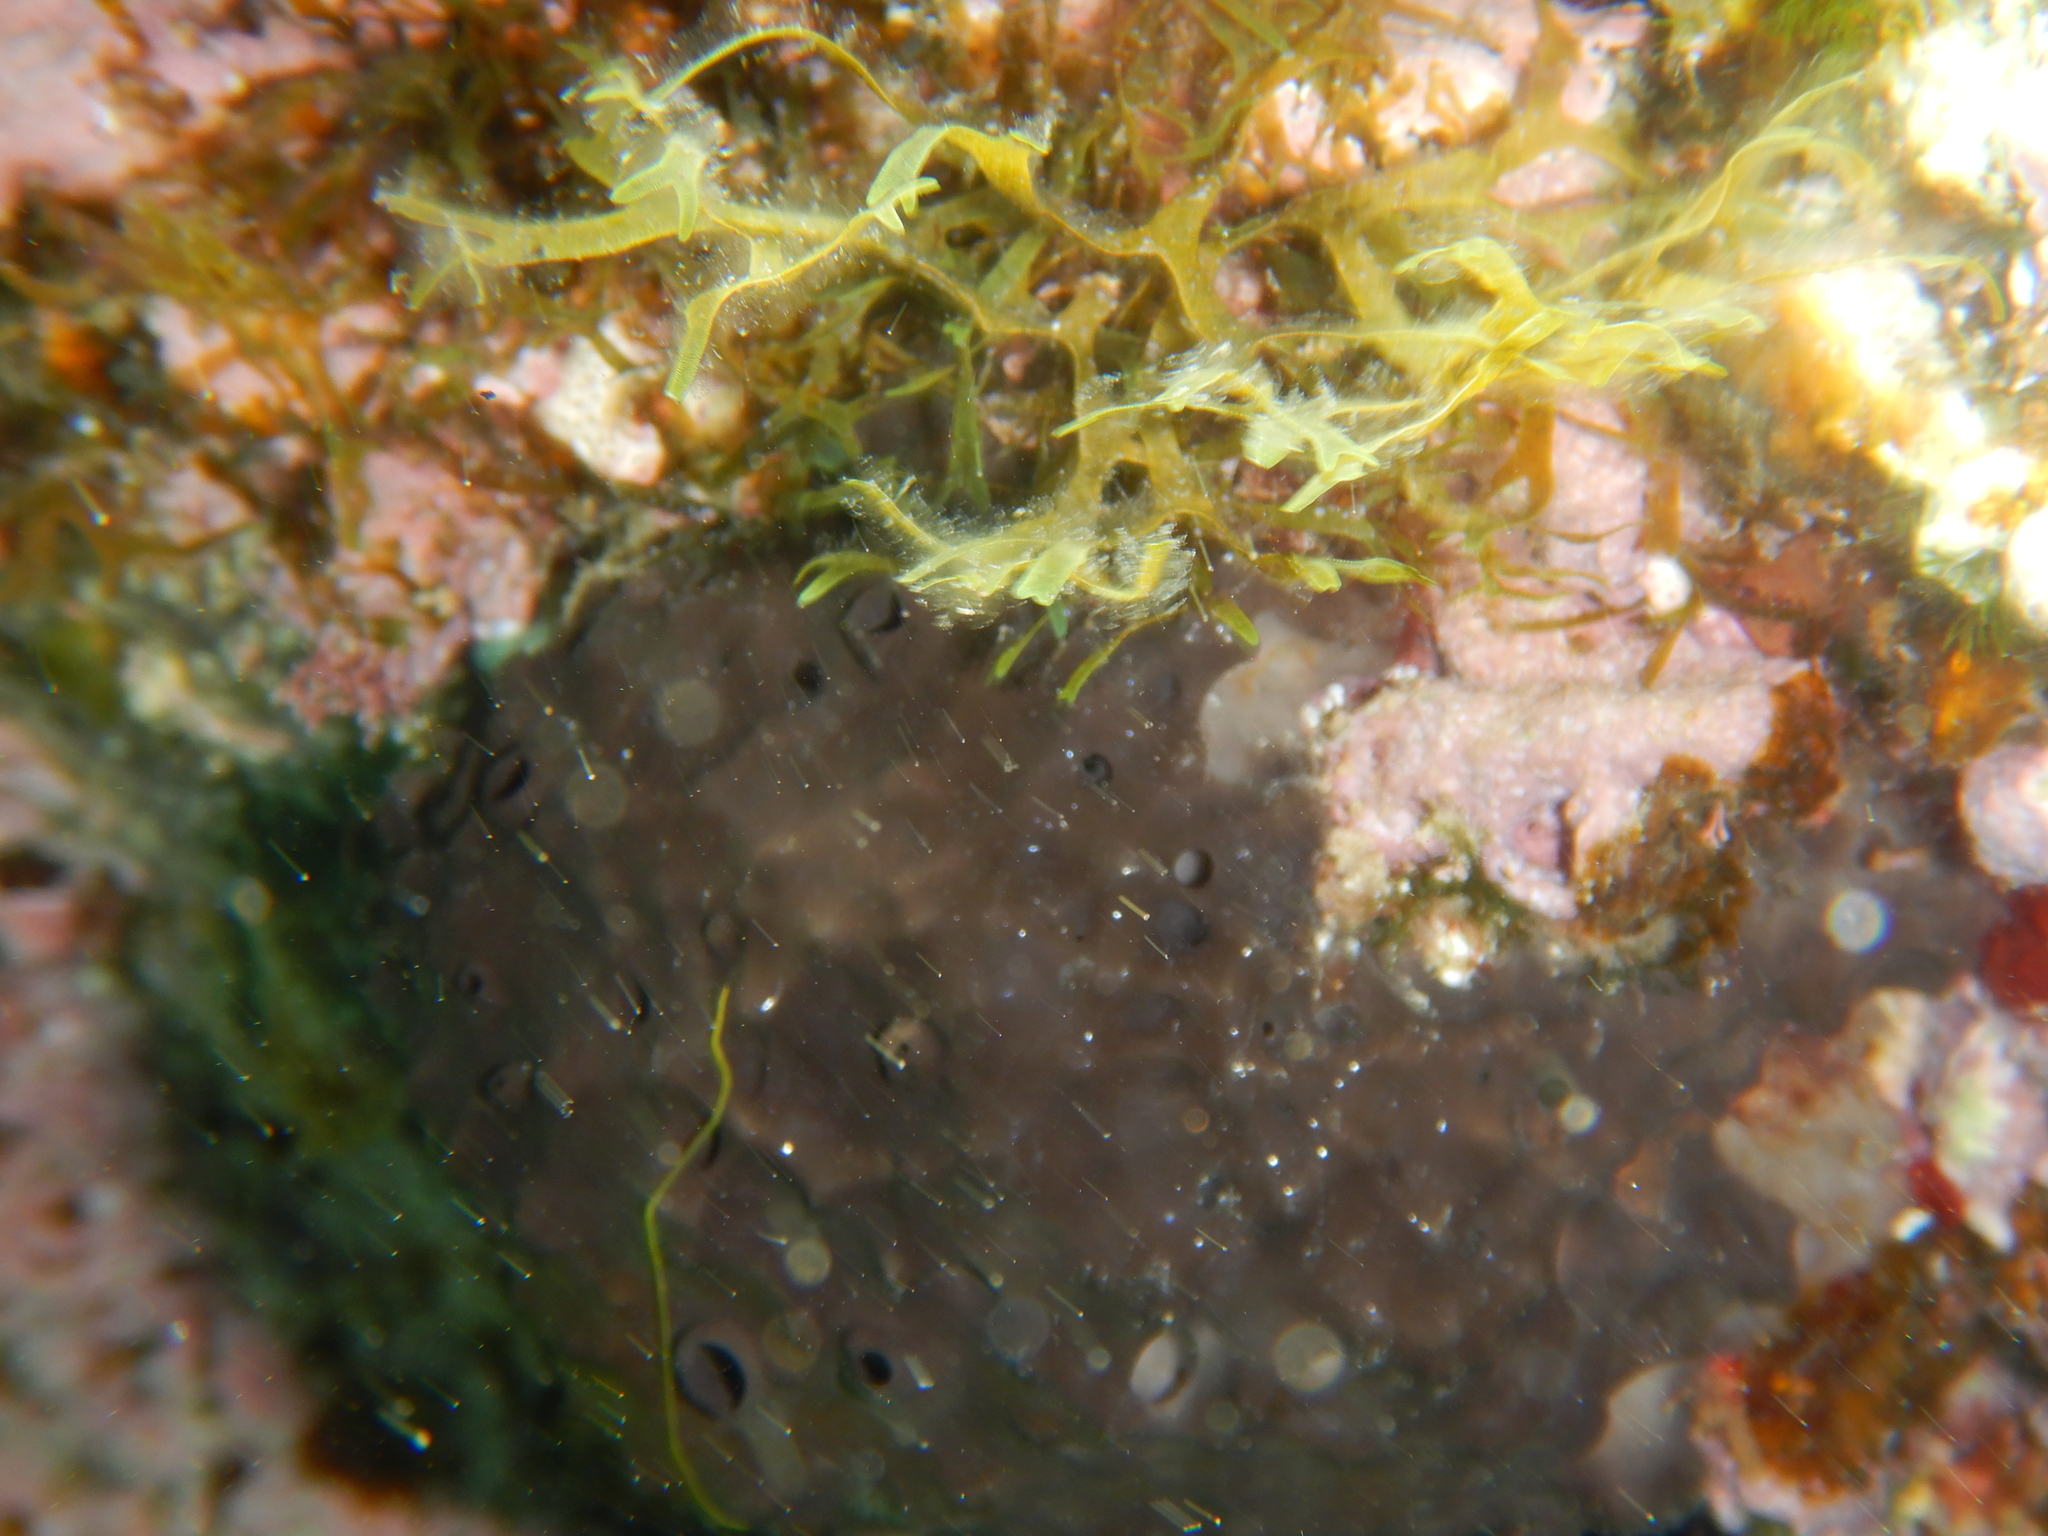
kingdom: Animalia
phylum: Porifera
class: Demospongiae
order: Dictyoceratida
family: Irciniidae
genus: Sarcotragus
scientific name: Sarcotragus spinosulus
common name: Black leather sponge
